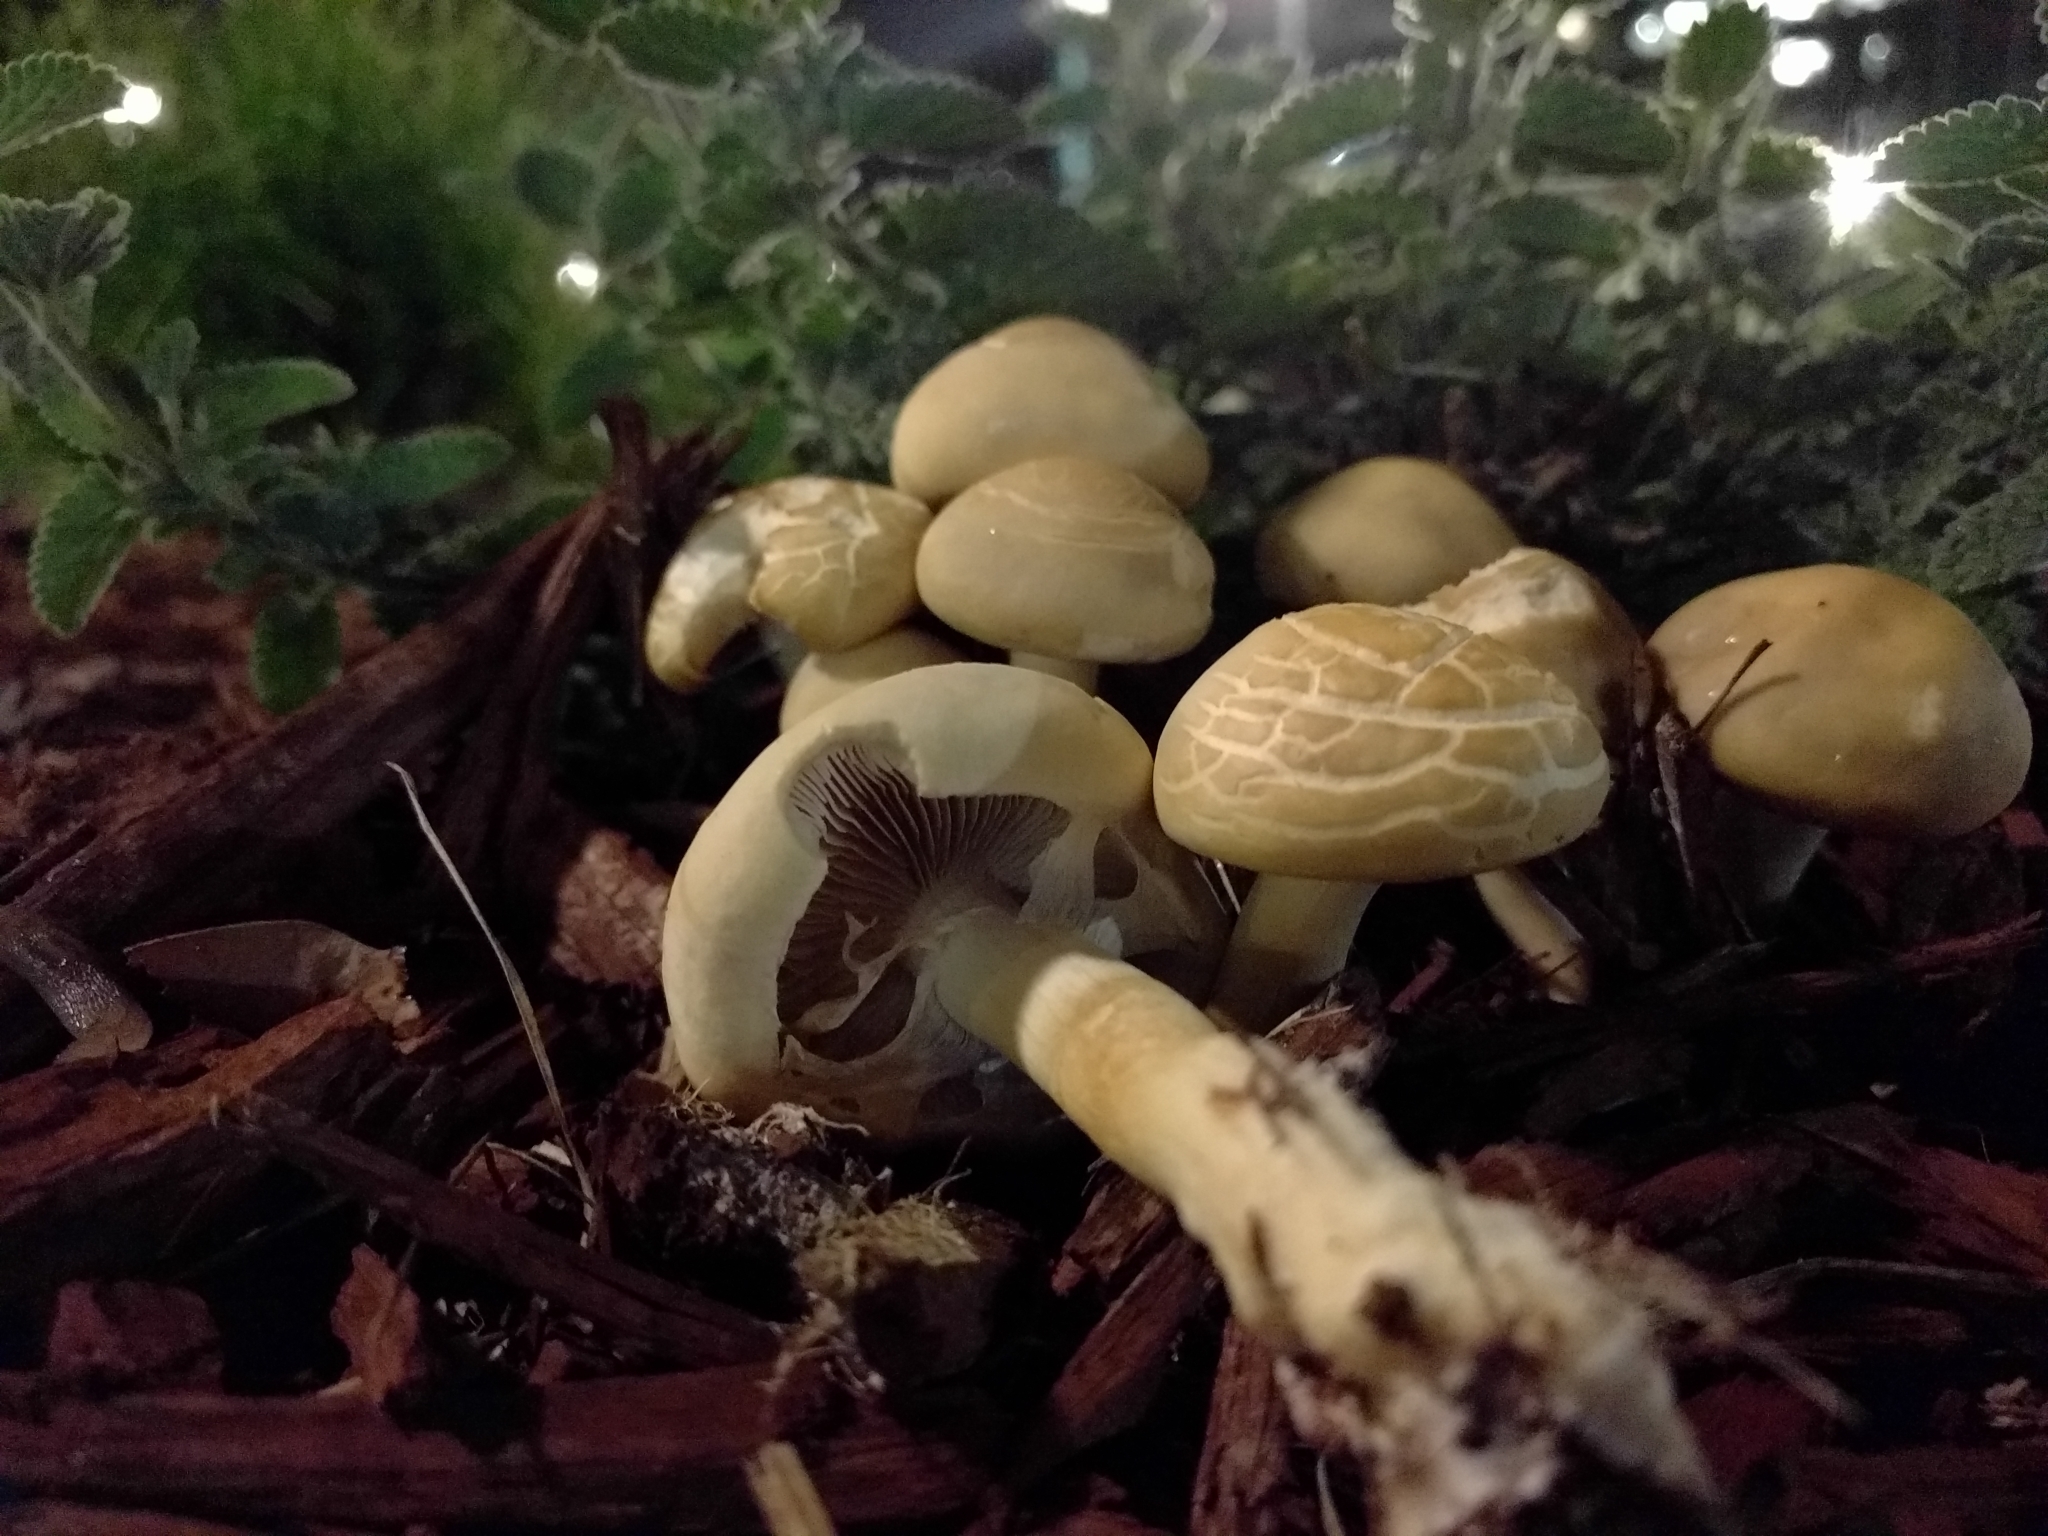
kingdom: Fungi
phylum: Basidiomycota
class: Agaricomycetes
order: Agaricales
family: Strophariaceae
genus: Agrocybe
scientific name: Agrocybe praecox
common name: Spring fieldcap
